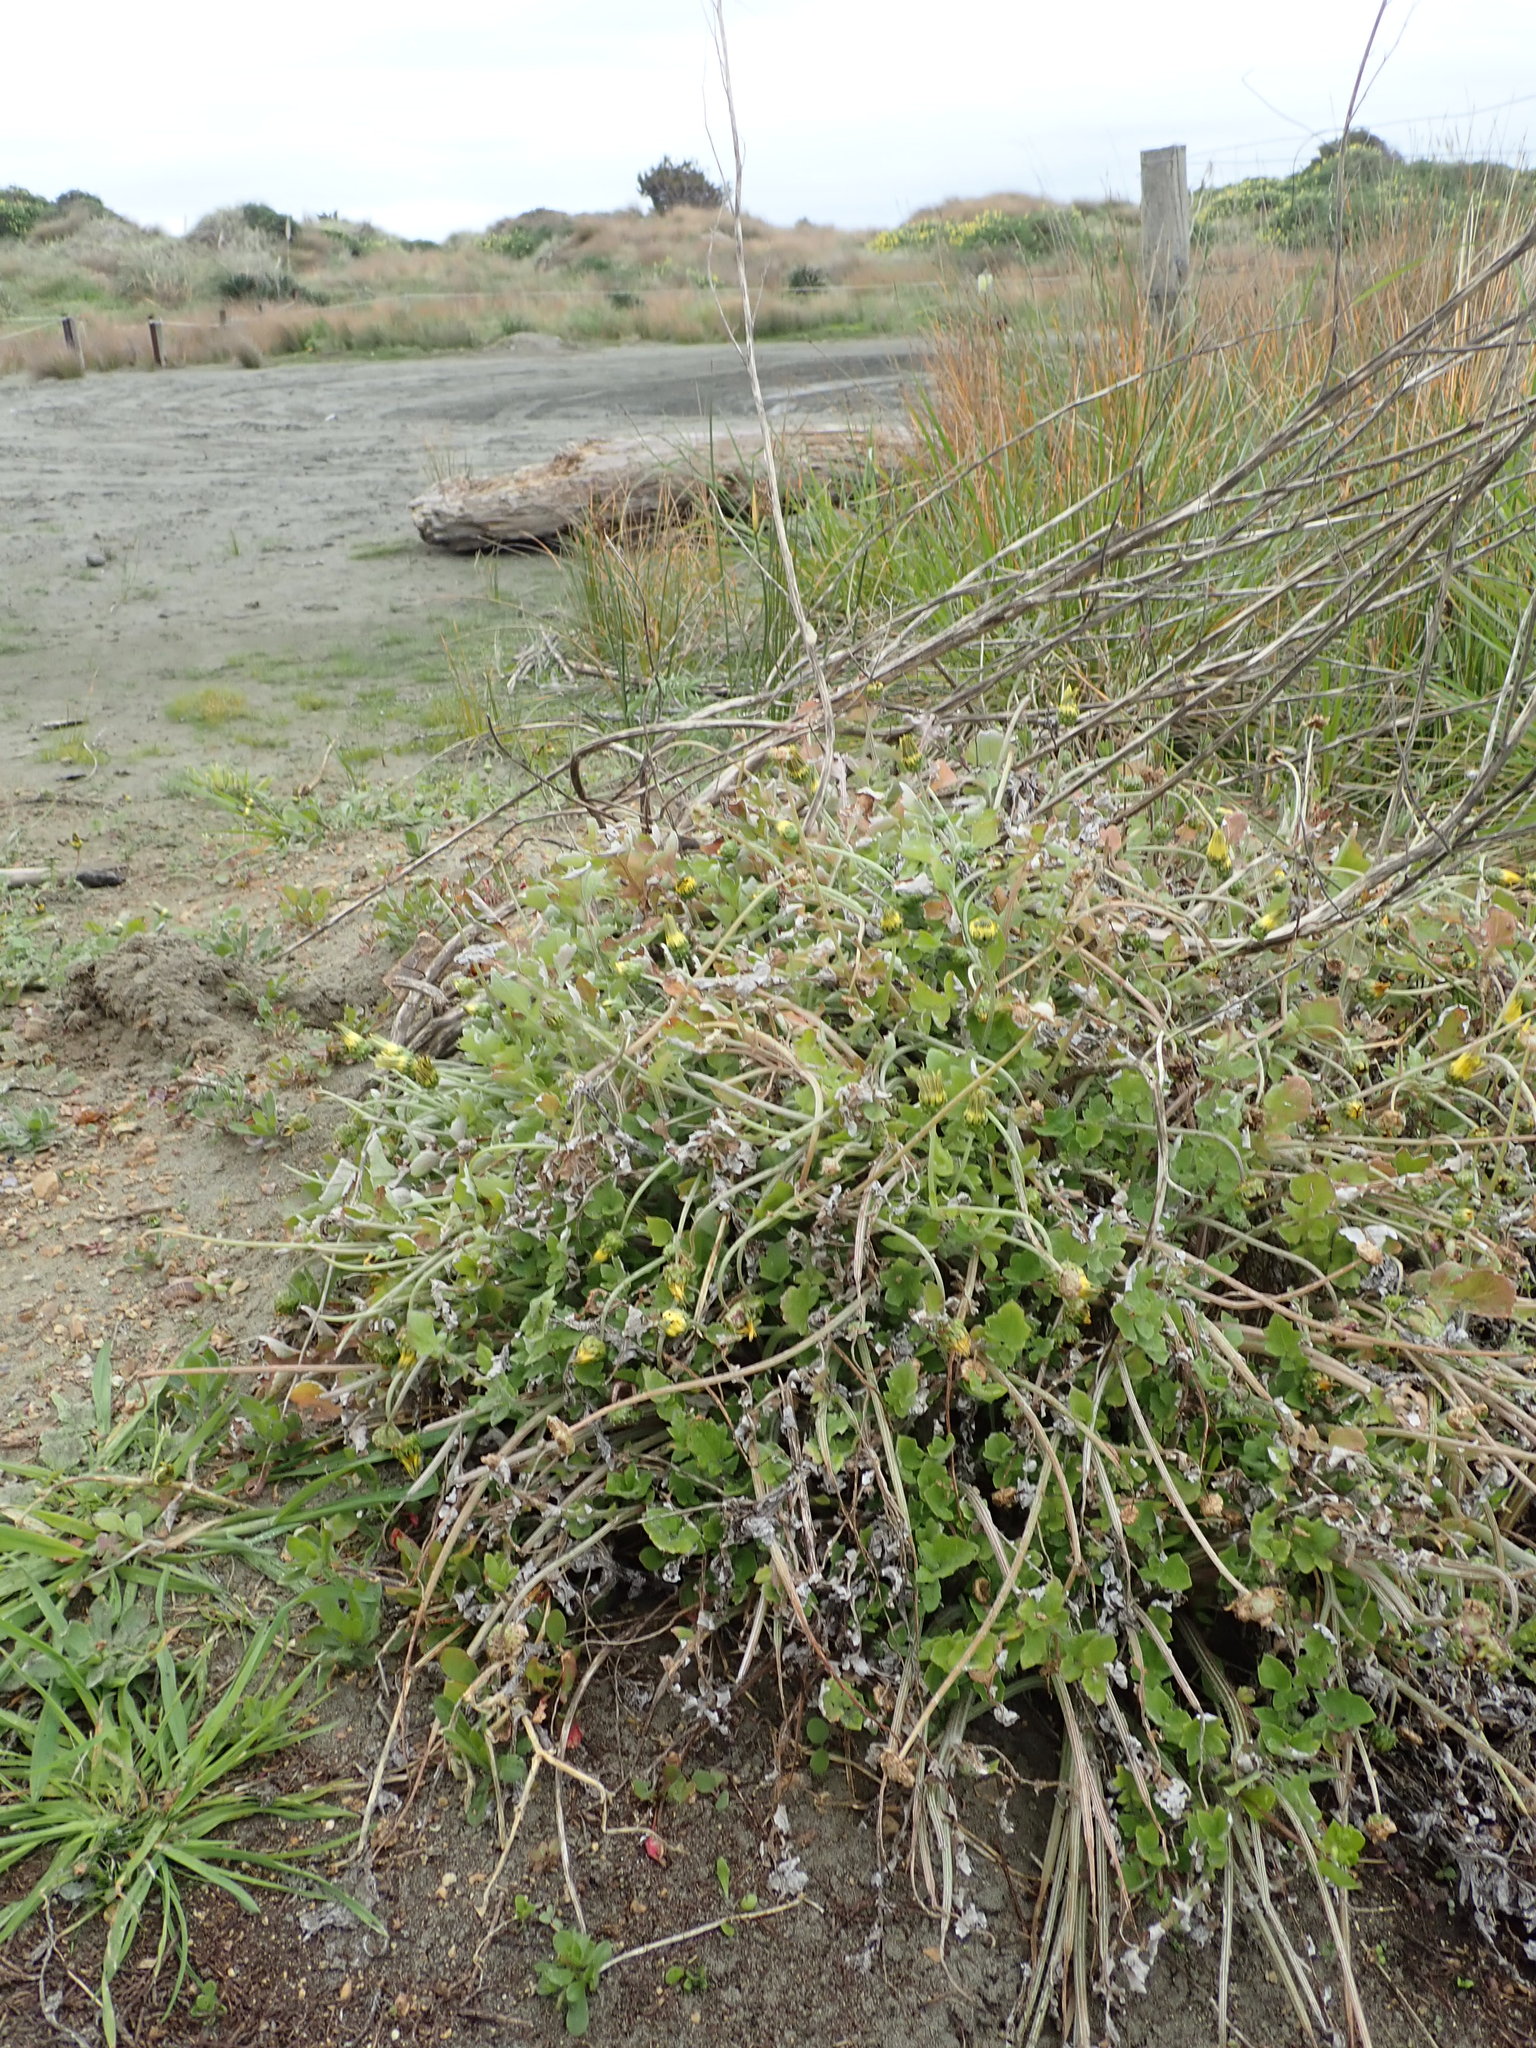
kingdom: Plantae
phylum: Tracheophyta
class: Magnoliopsida
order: Asterales
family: Asteraceae
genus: Arctotheca
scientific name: Arctotheca calendula
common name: Capeweed
